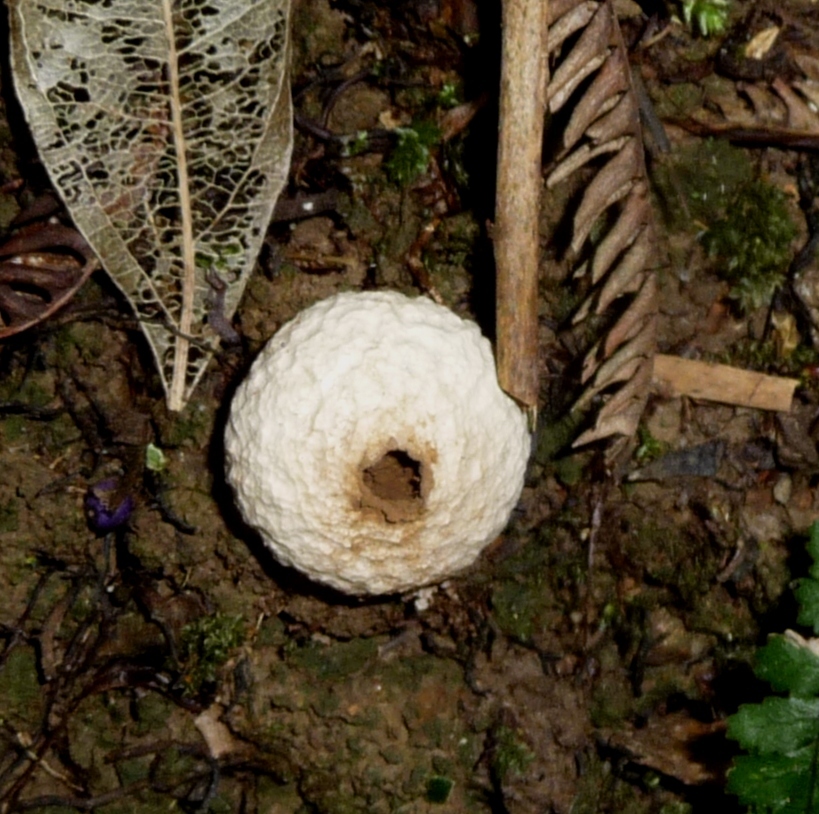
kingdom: Fungi
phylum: Basidiomycota
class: Agaricomycetes
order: Agaricales
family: Lycoperdaceae
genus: Lycoperdon
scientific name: Lycoperdon compactum
